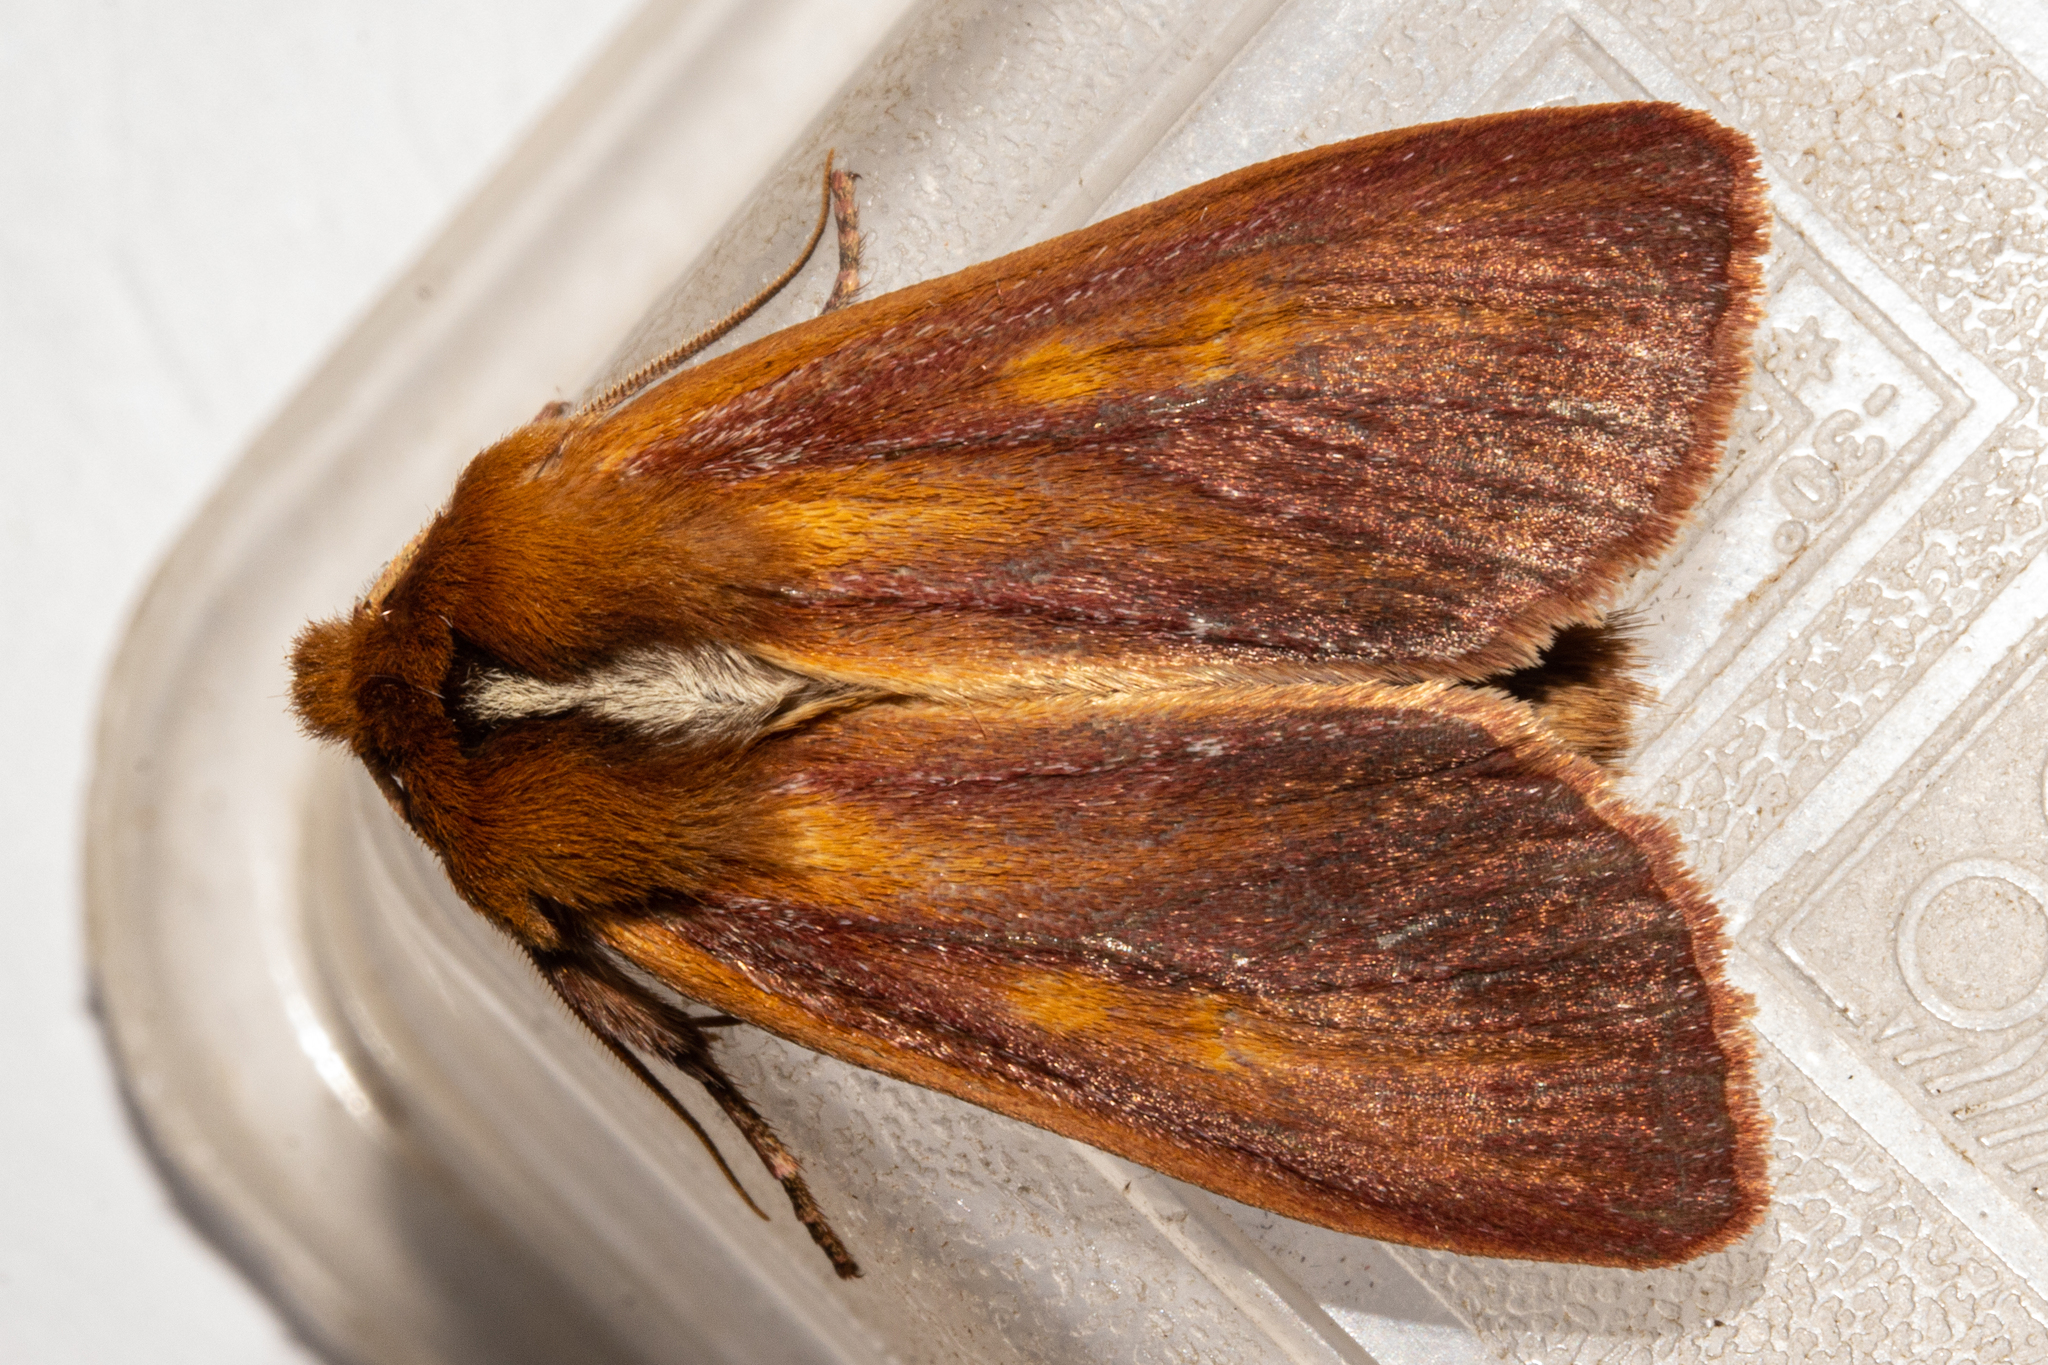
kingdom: Animalia
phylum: Arthropoda
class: Insecta
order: Lepidoptera
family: Noctuidae
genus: Ichneutica
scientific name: Ichneutica
